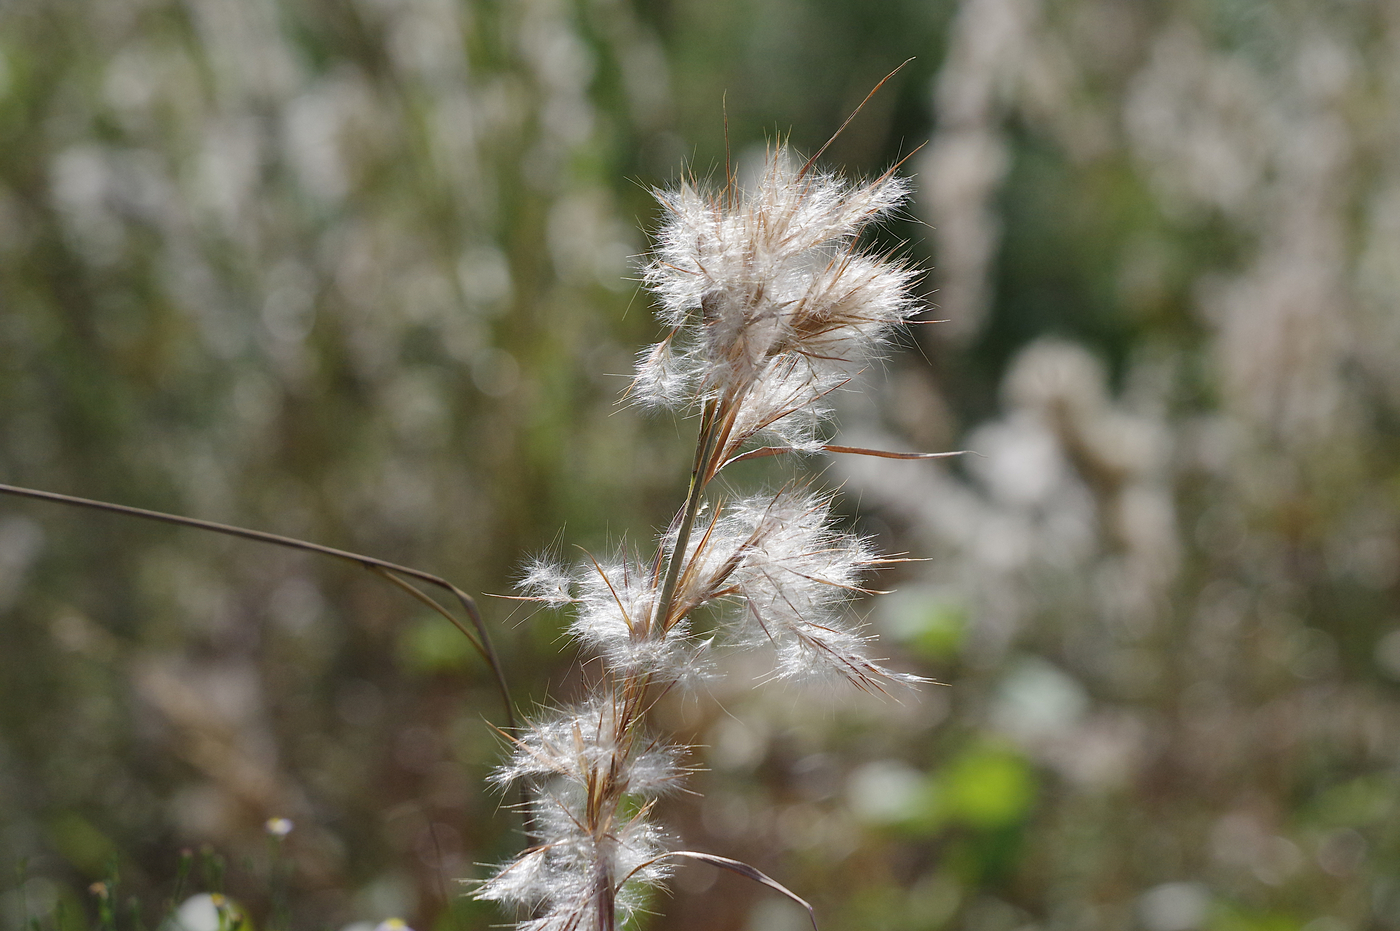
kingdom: Plantae
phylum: Tracheophyta
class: Liliopsida
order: Poales
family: Poaceae
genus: Andropogon
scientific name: Andropogon tenuispatheus
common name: Bushy bluestem
